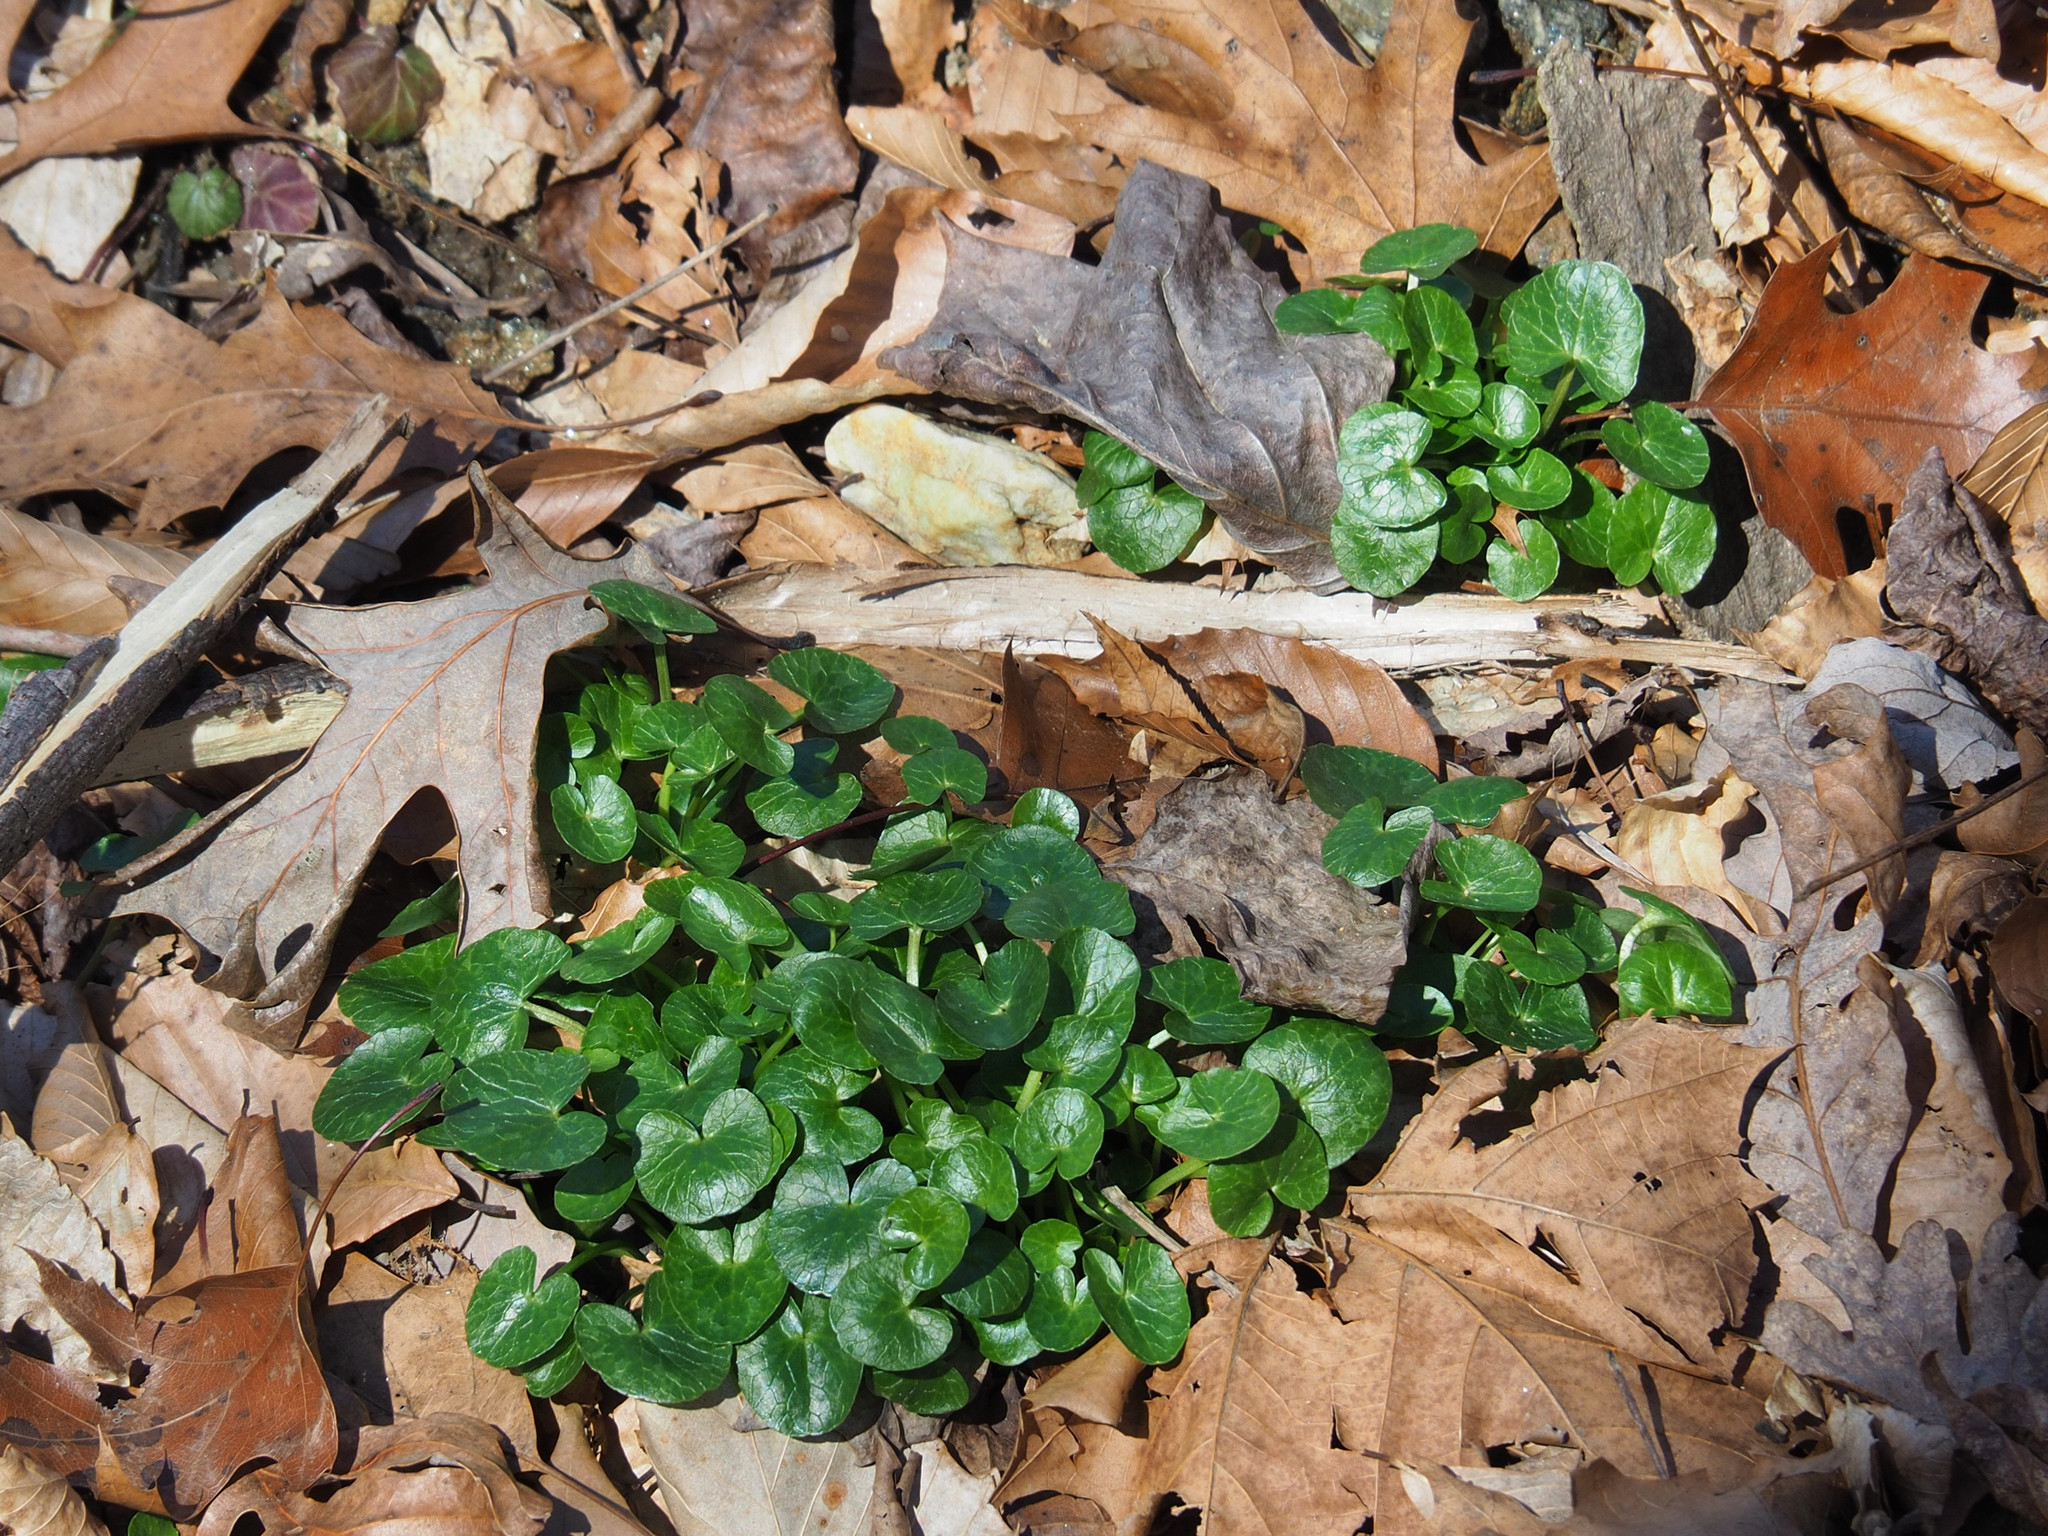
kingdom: Plantae
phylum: Tracheophyta
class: Magnoliopsida
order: Ranunculales
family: Ranunculaceae
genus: Ficaria
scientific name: Ficaria verna
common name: Lesser celandine
